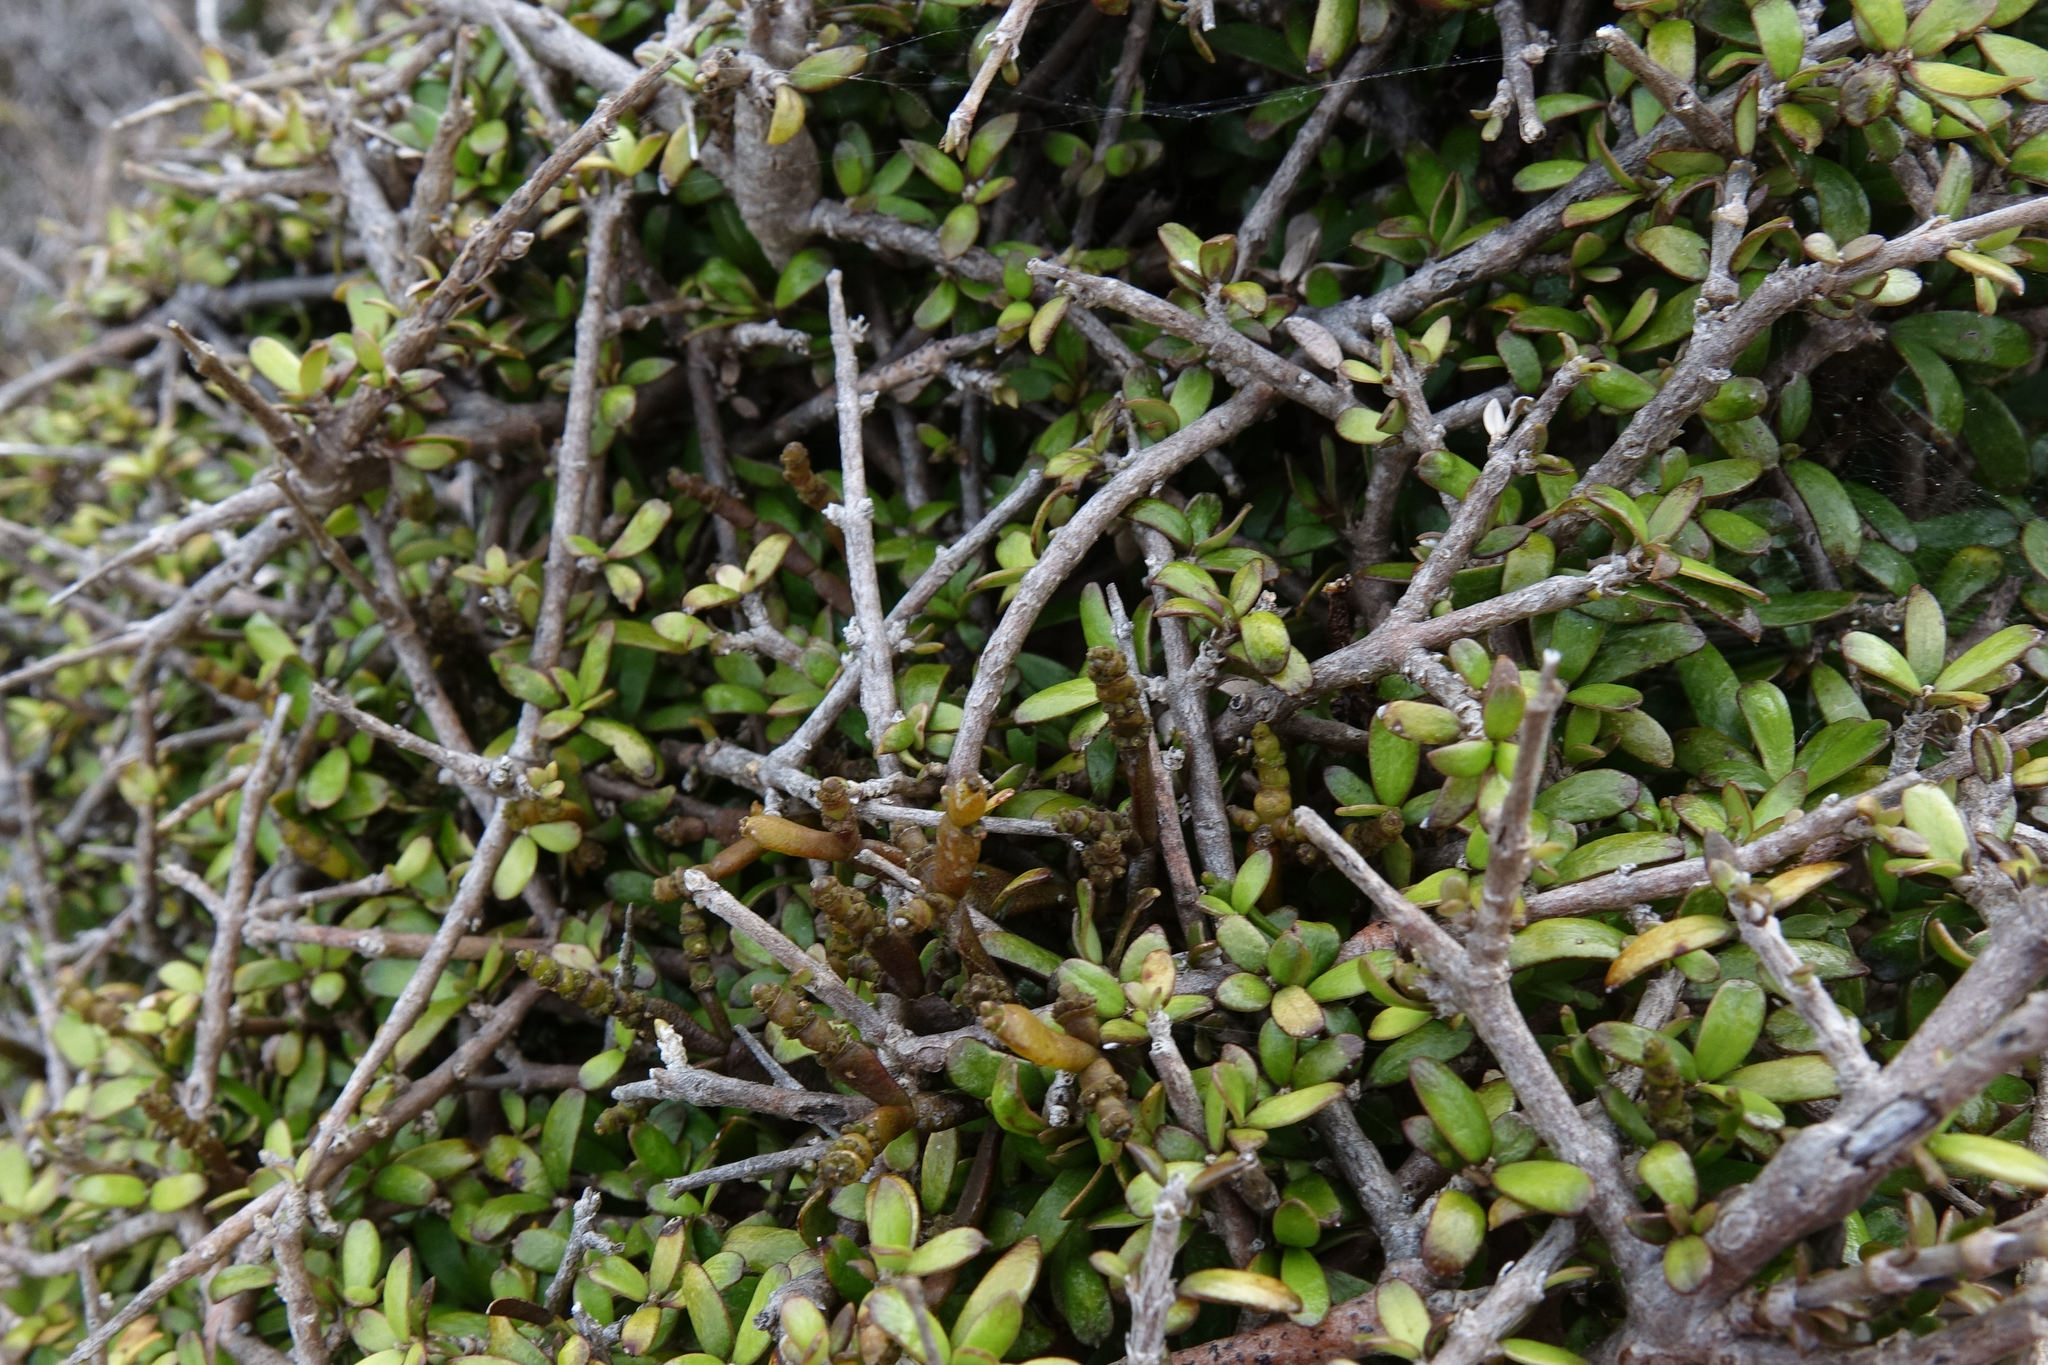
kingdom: Plantae
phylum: Tracheophyta
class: Magnoliopsida
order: Santalales
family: Viscaceae
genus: Korthalsella
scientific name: Korthalsella clavata
